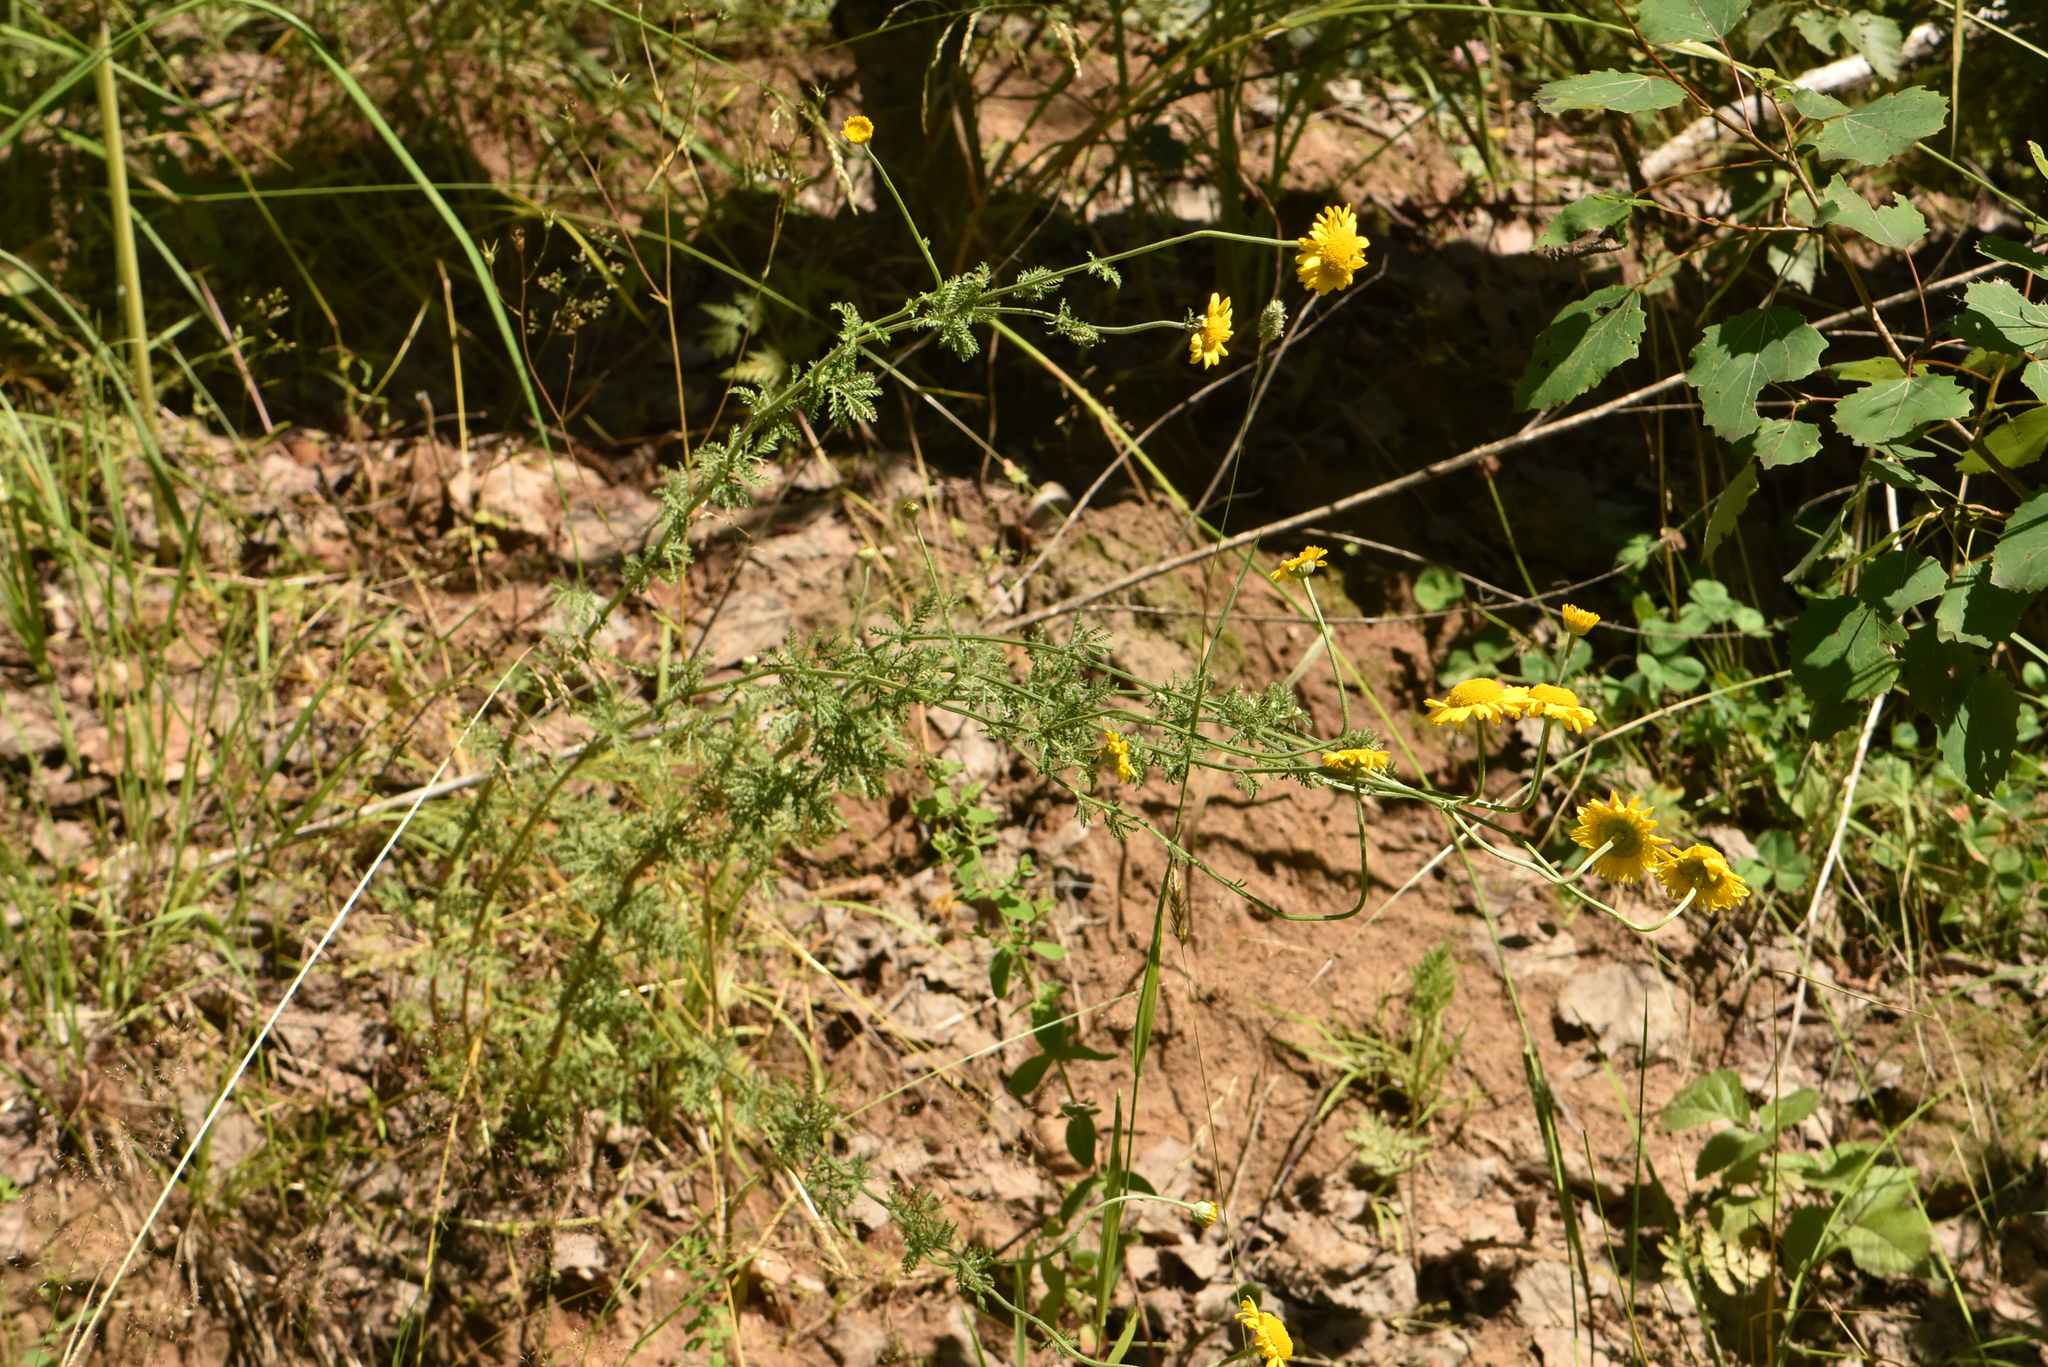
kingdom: Plantae
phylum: Tracheophyta
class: Magnoliopsida
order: Asterales
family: Asteraceae
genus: Cota
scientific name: Cota tinctoria
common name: Golden chamomile
